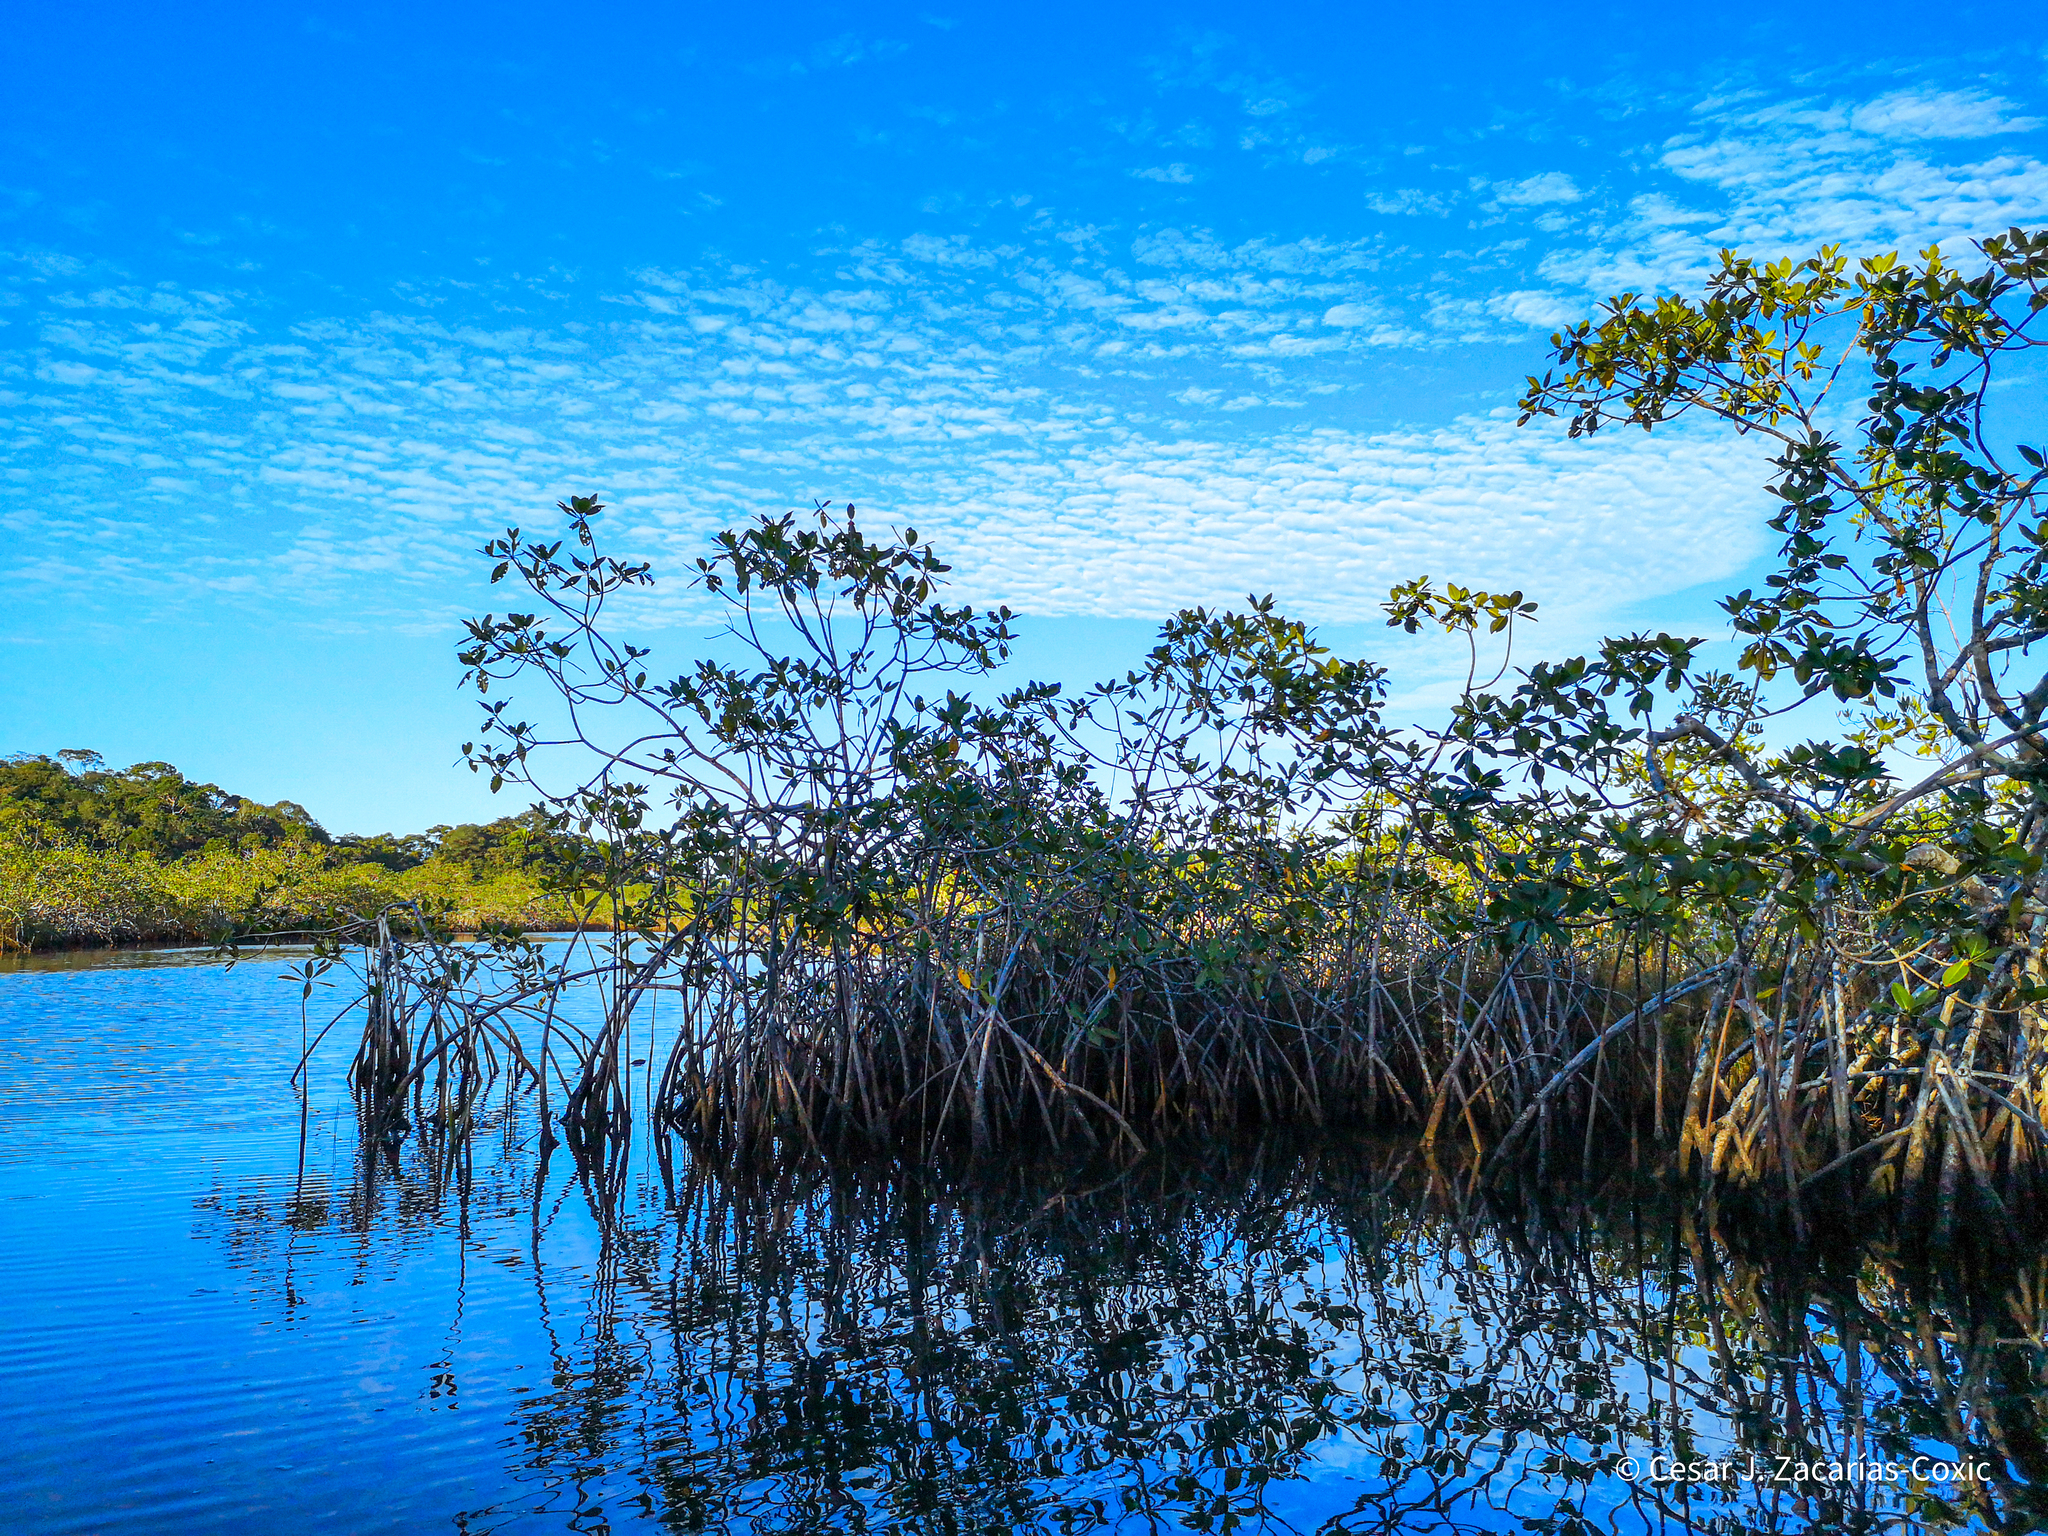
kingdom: Plantae
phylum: Tracheophyta
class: Magnoliopsida
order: Malpighiales
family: Rhizophoraceae
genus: Rhizophora
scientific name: Rhizophora mangle
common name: Red mangrove
